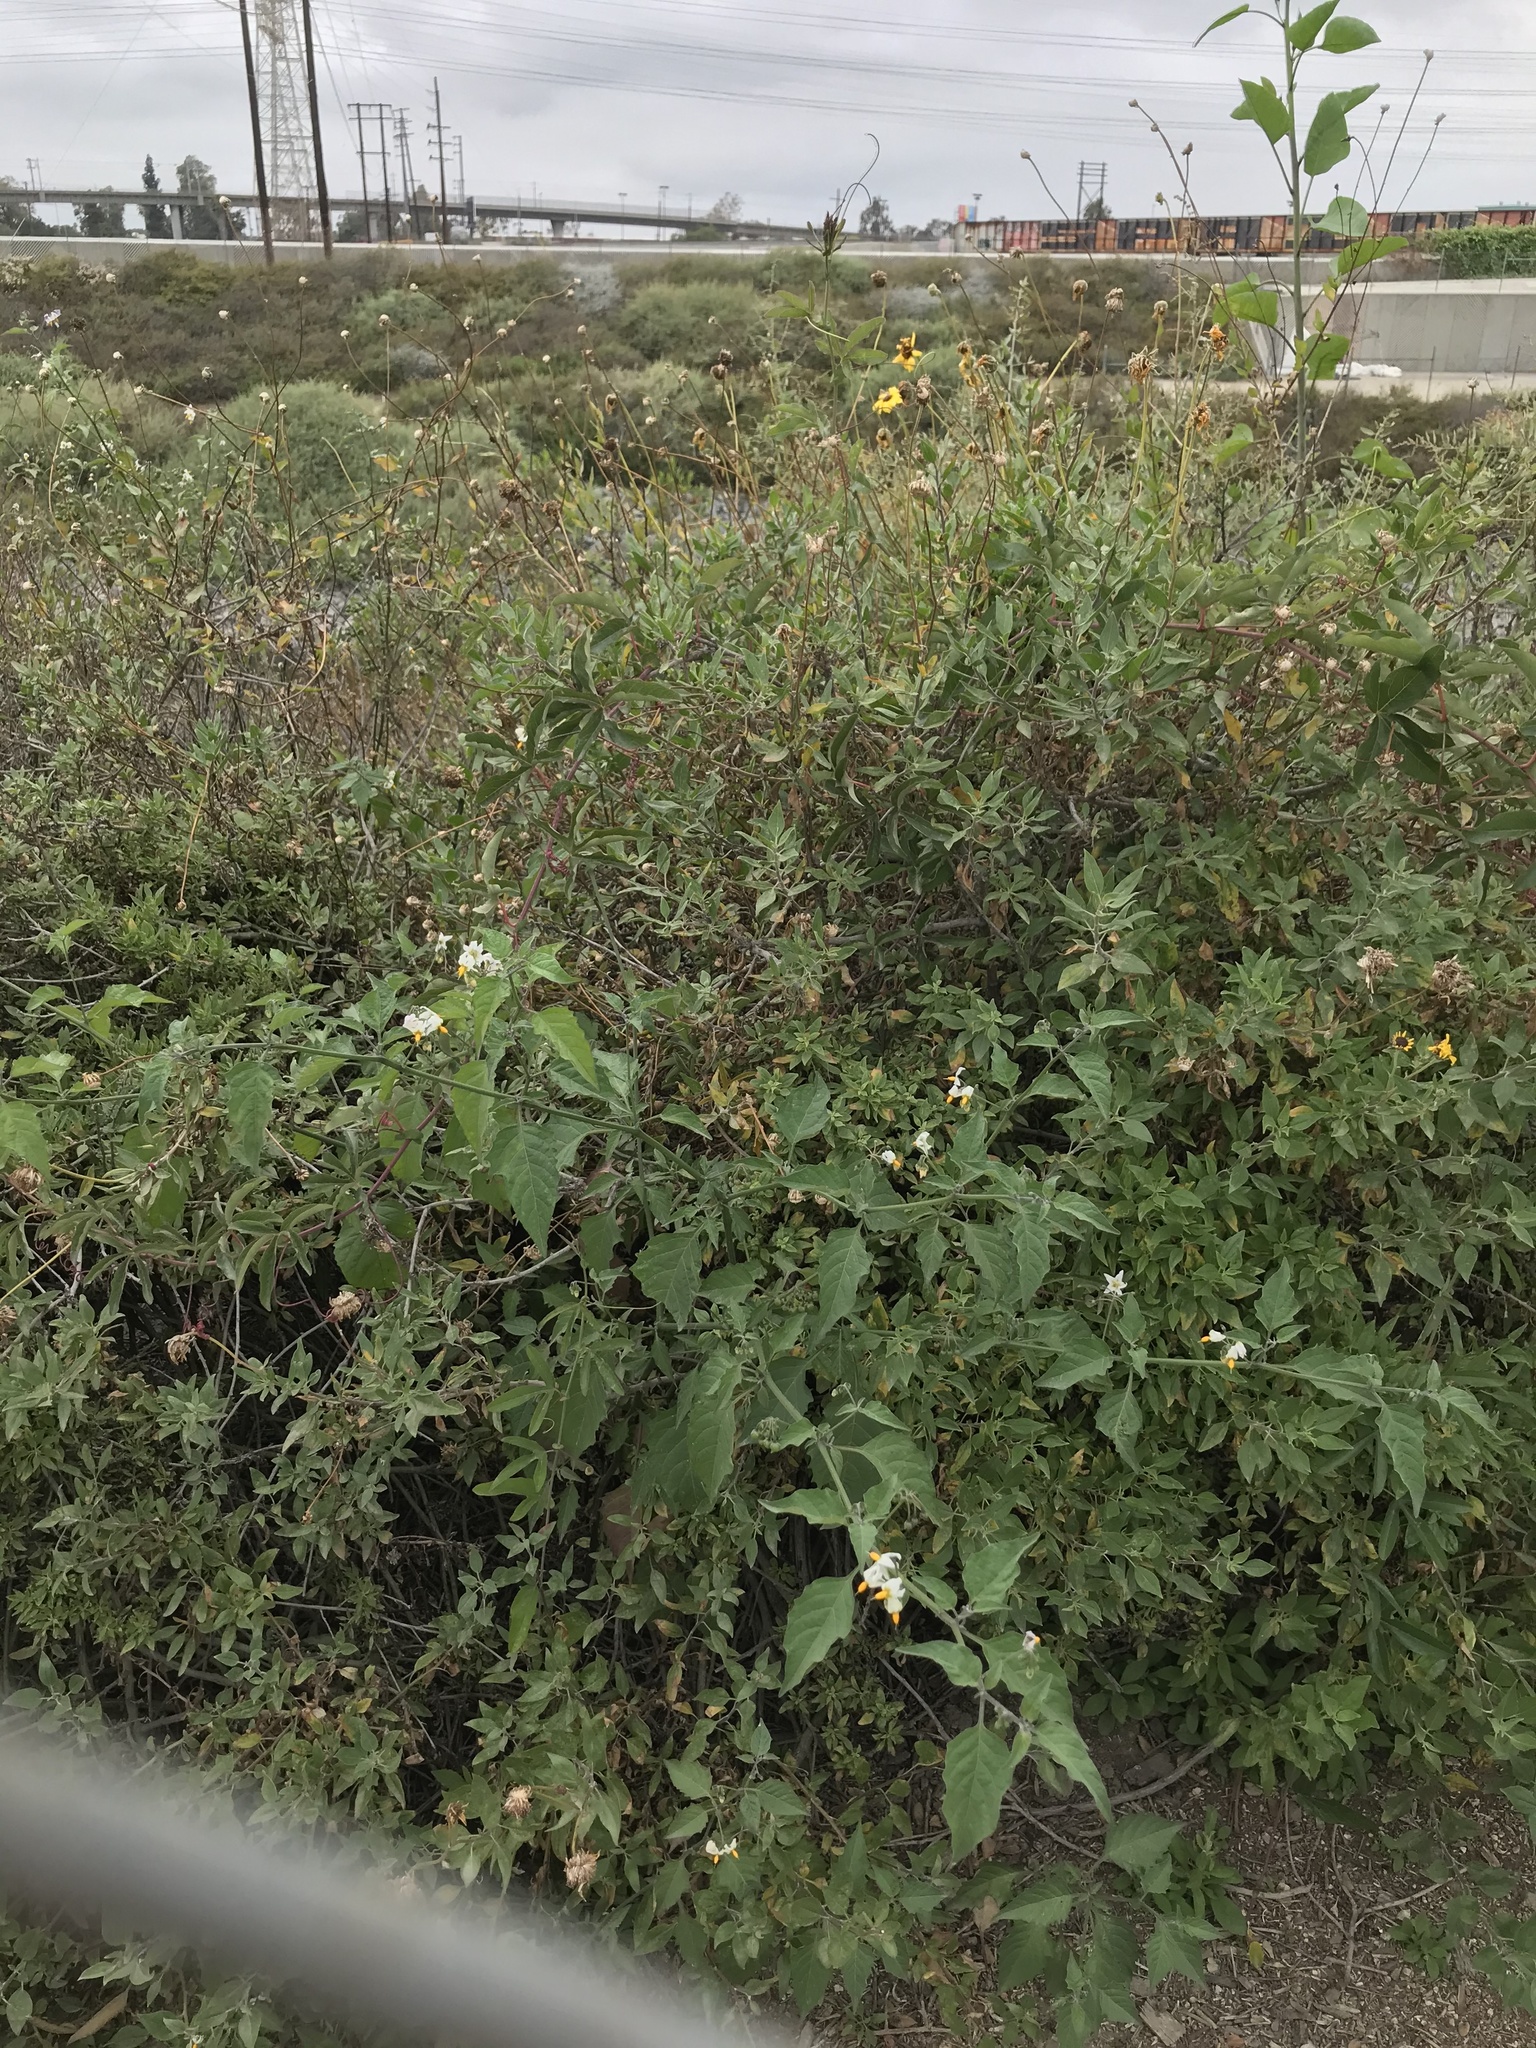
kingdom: Plantae
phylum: Tracheophyta
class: Magnoliopsida
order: Solanales
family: Solanaceae
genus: Solanum
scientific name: Solanum douglasii
